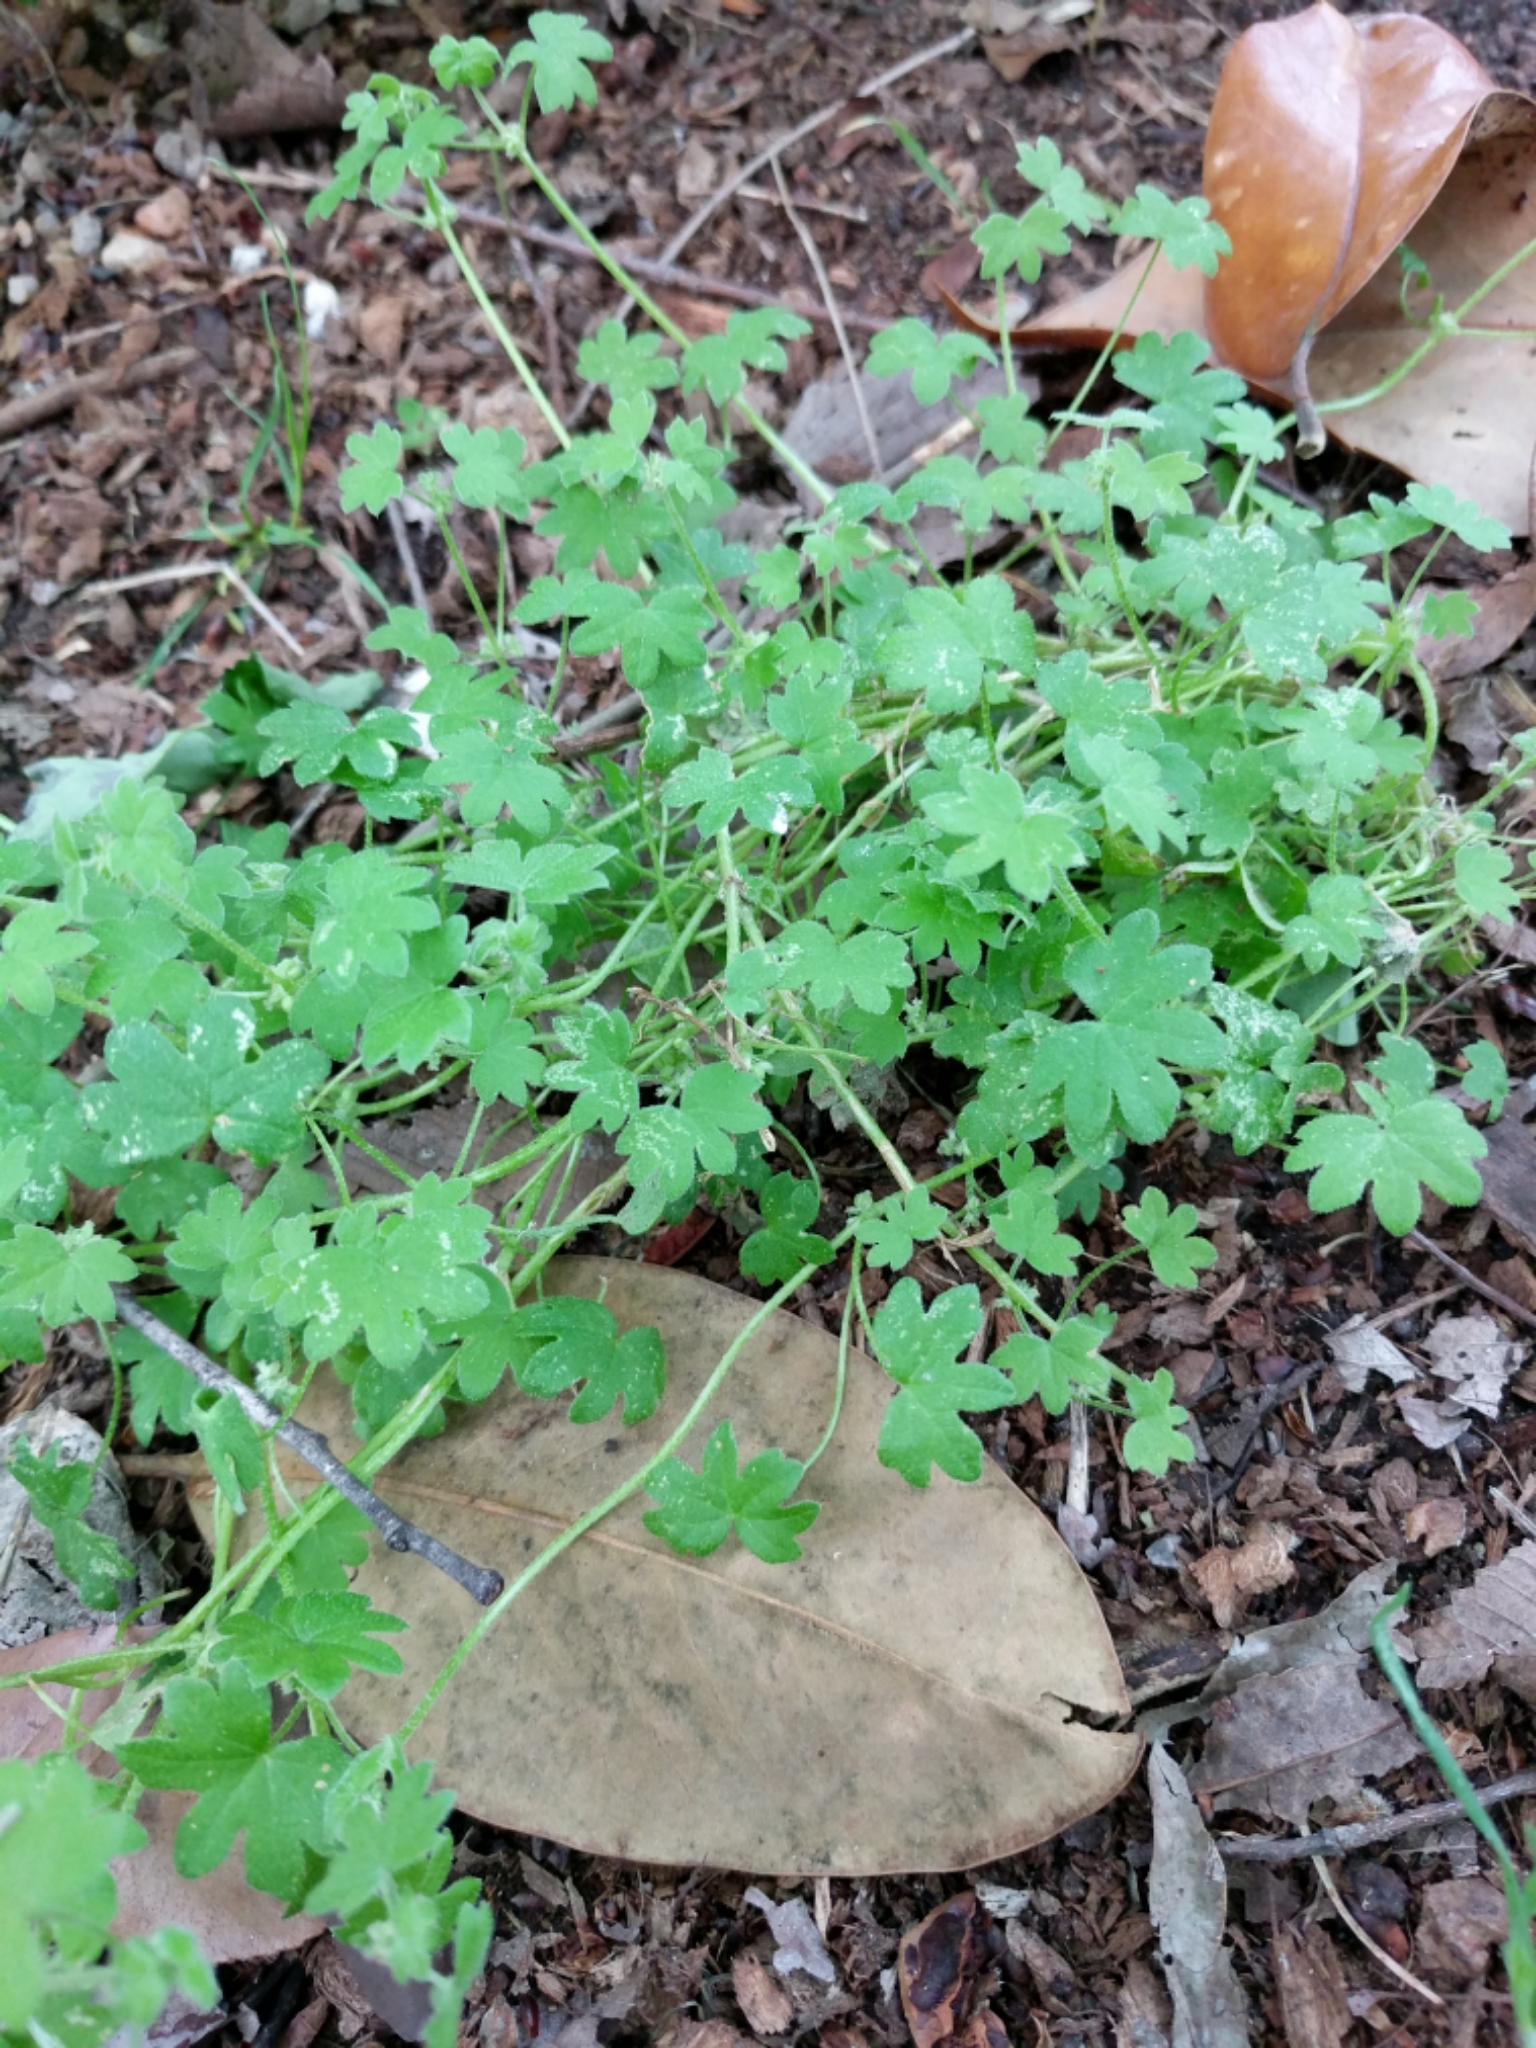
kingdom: Plantae
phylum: Tracheophyta
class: Magnoliopsida
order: Apiales
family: Apiaceae
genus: Bowlesia
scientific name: Bowlesia incana
